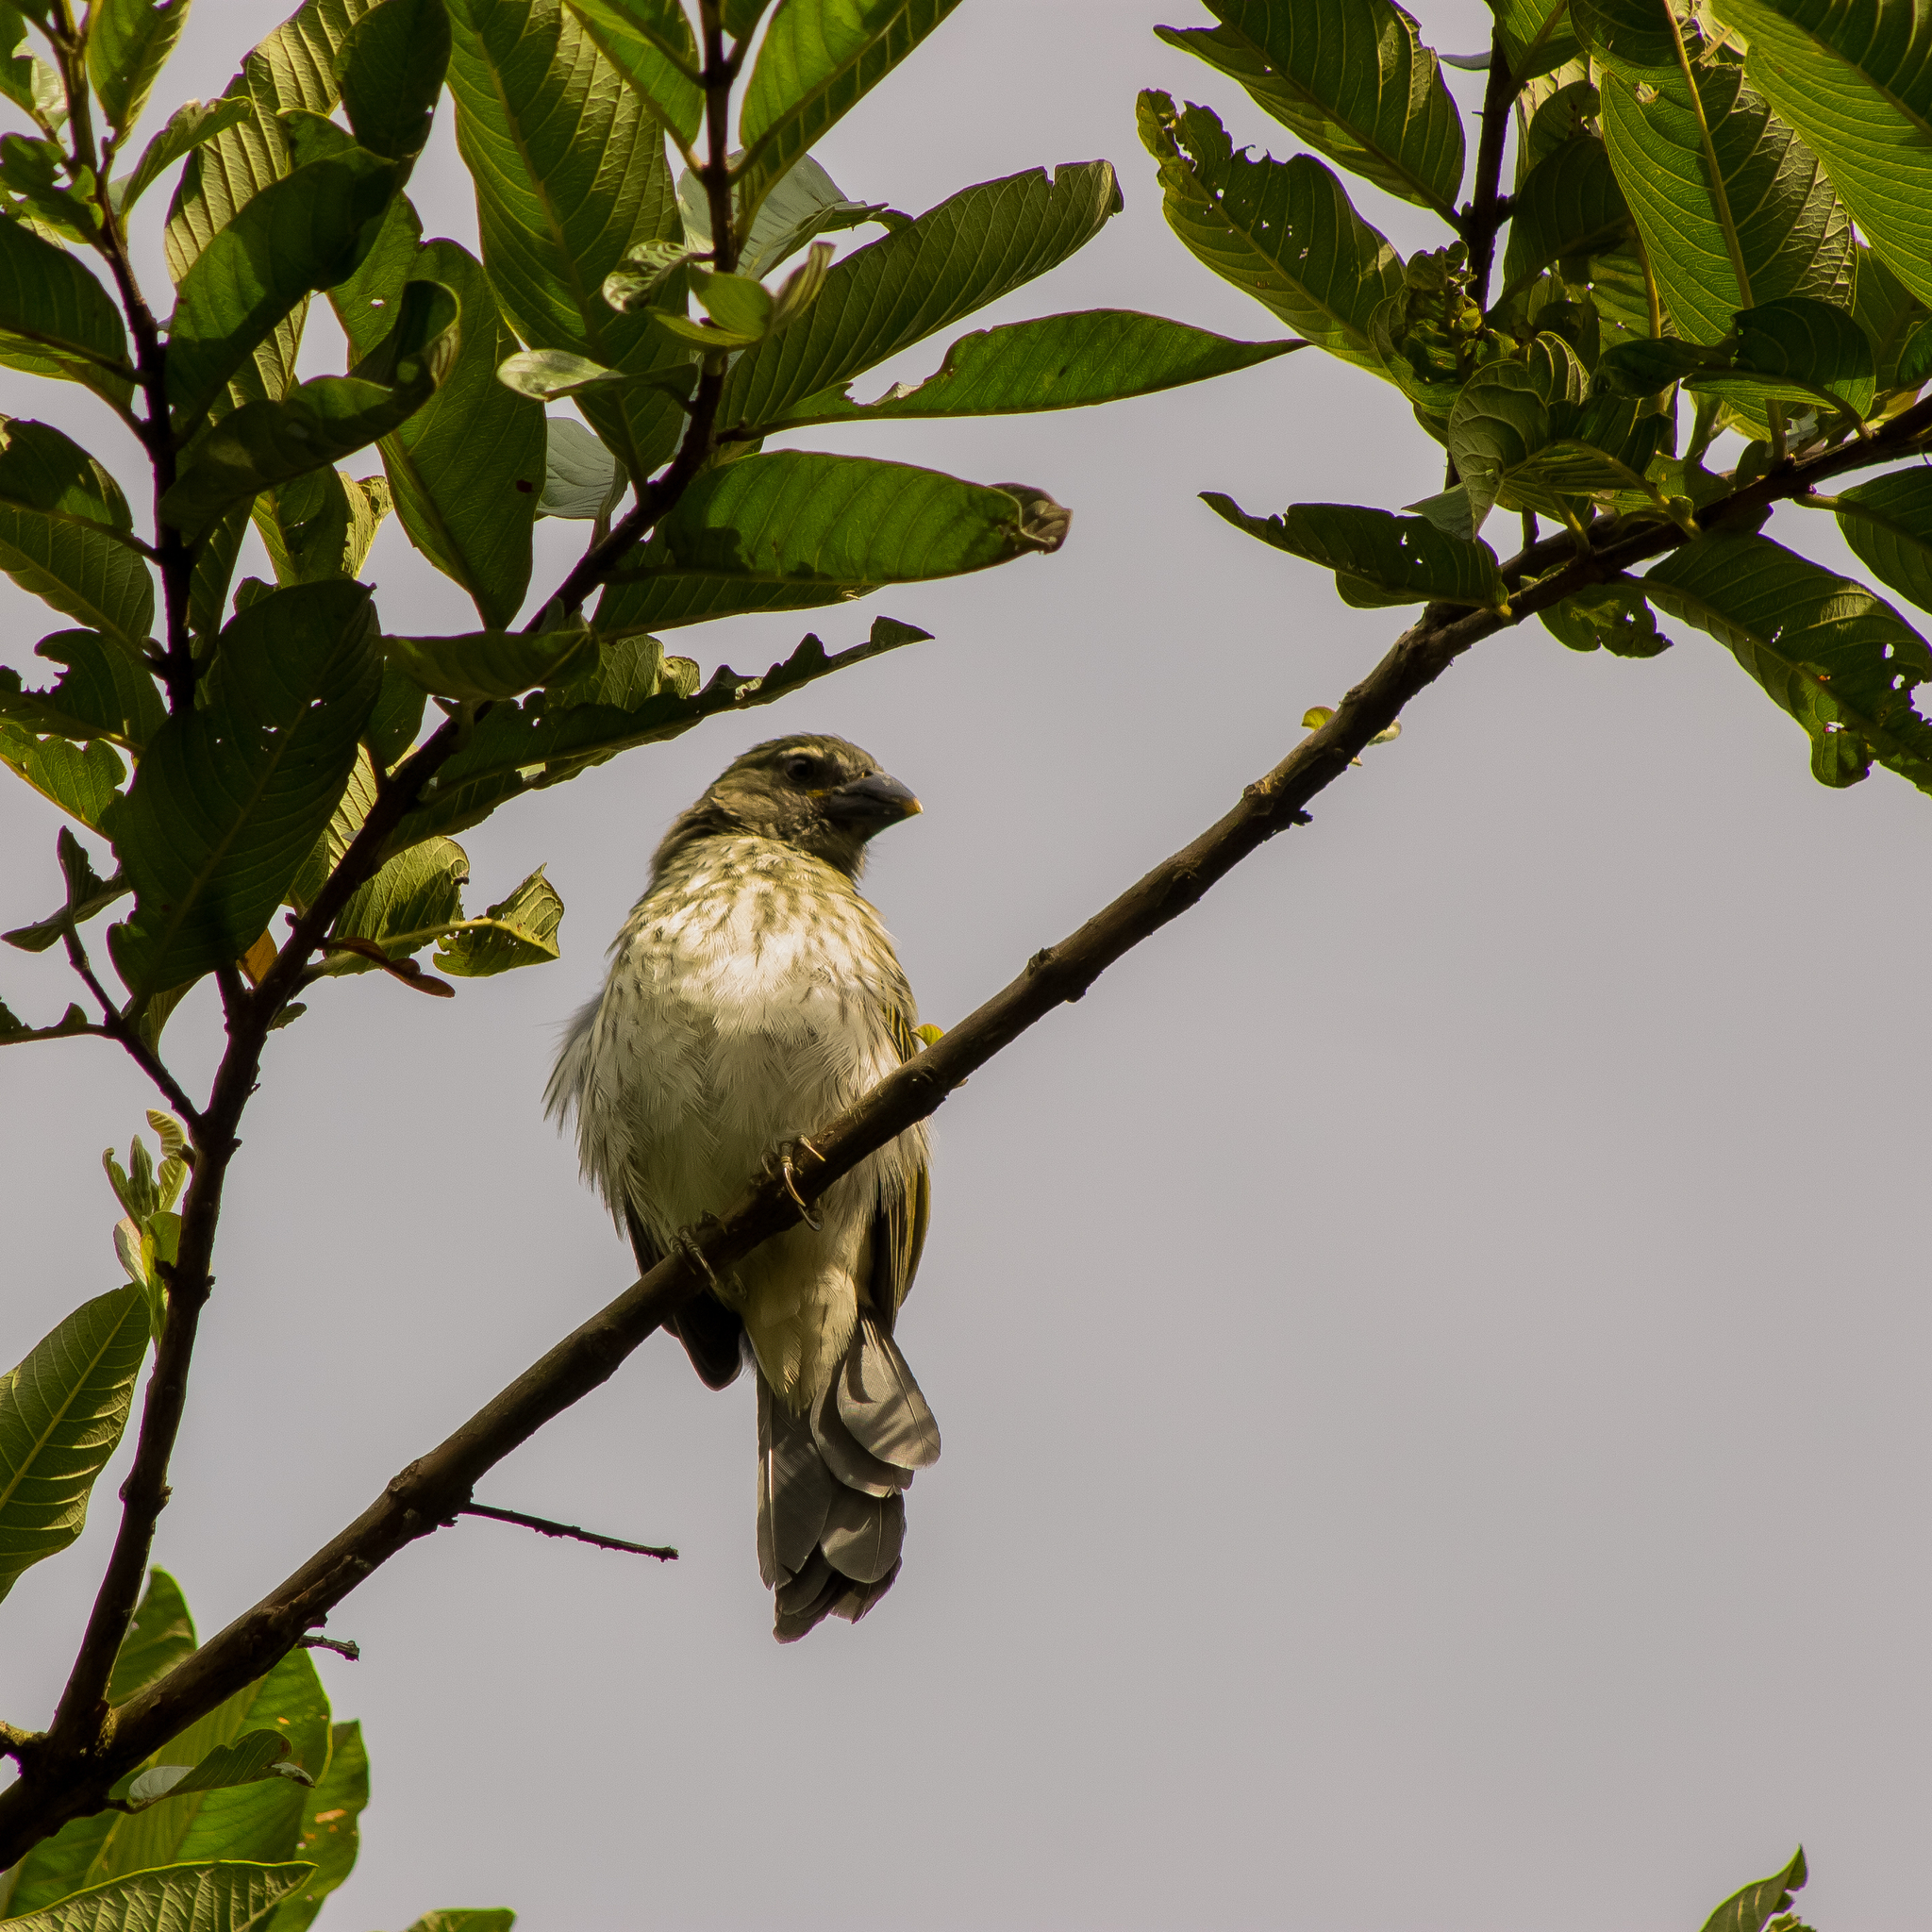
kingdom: Animalia
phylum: Chordata
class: Aves
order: Passeriformes
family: Thraupidae
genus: Saltator
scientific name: Saltator striatipectus
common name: Streaked saltator
